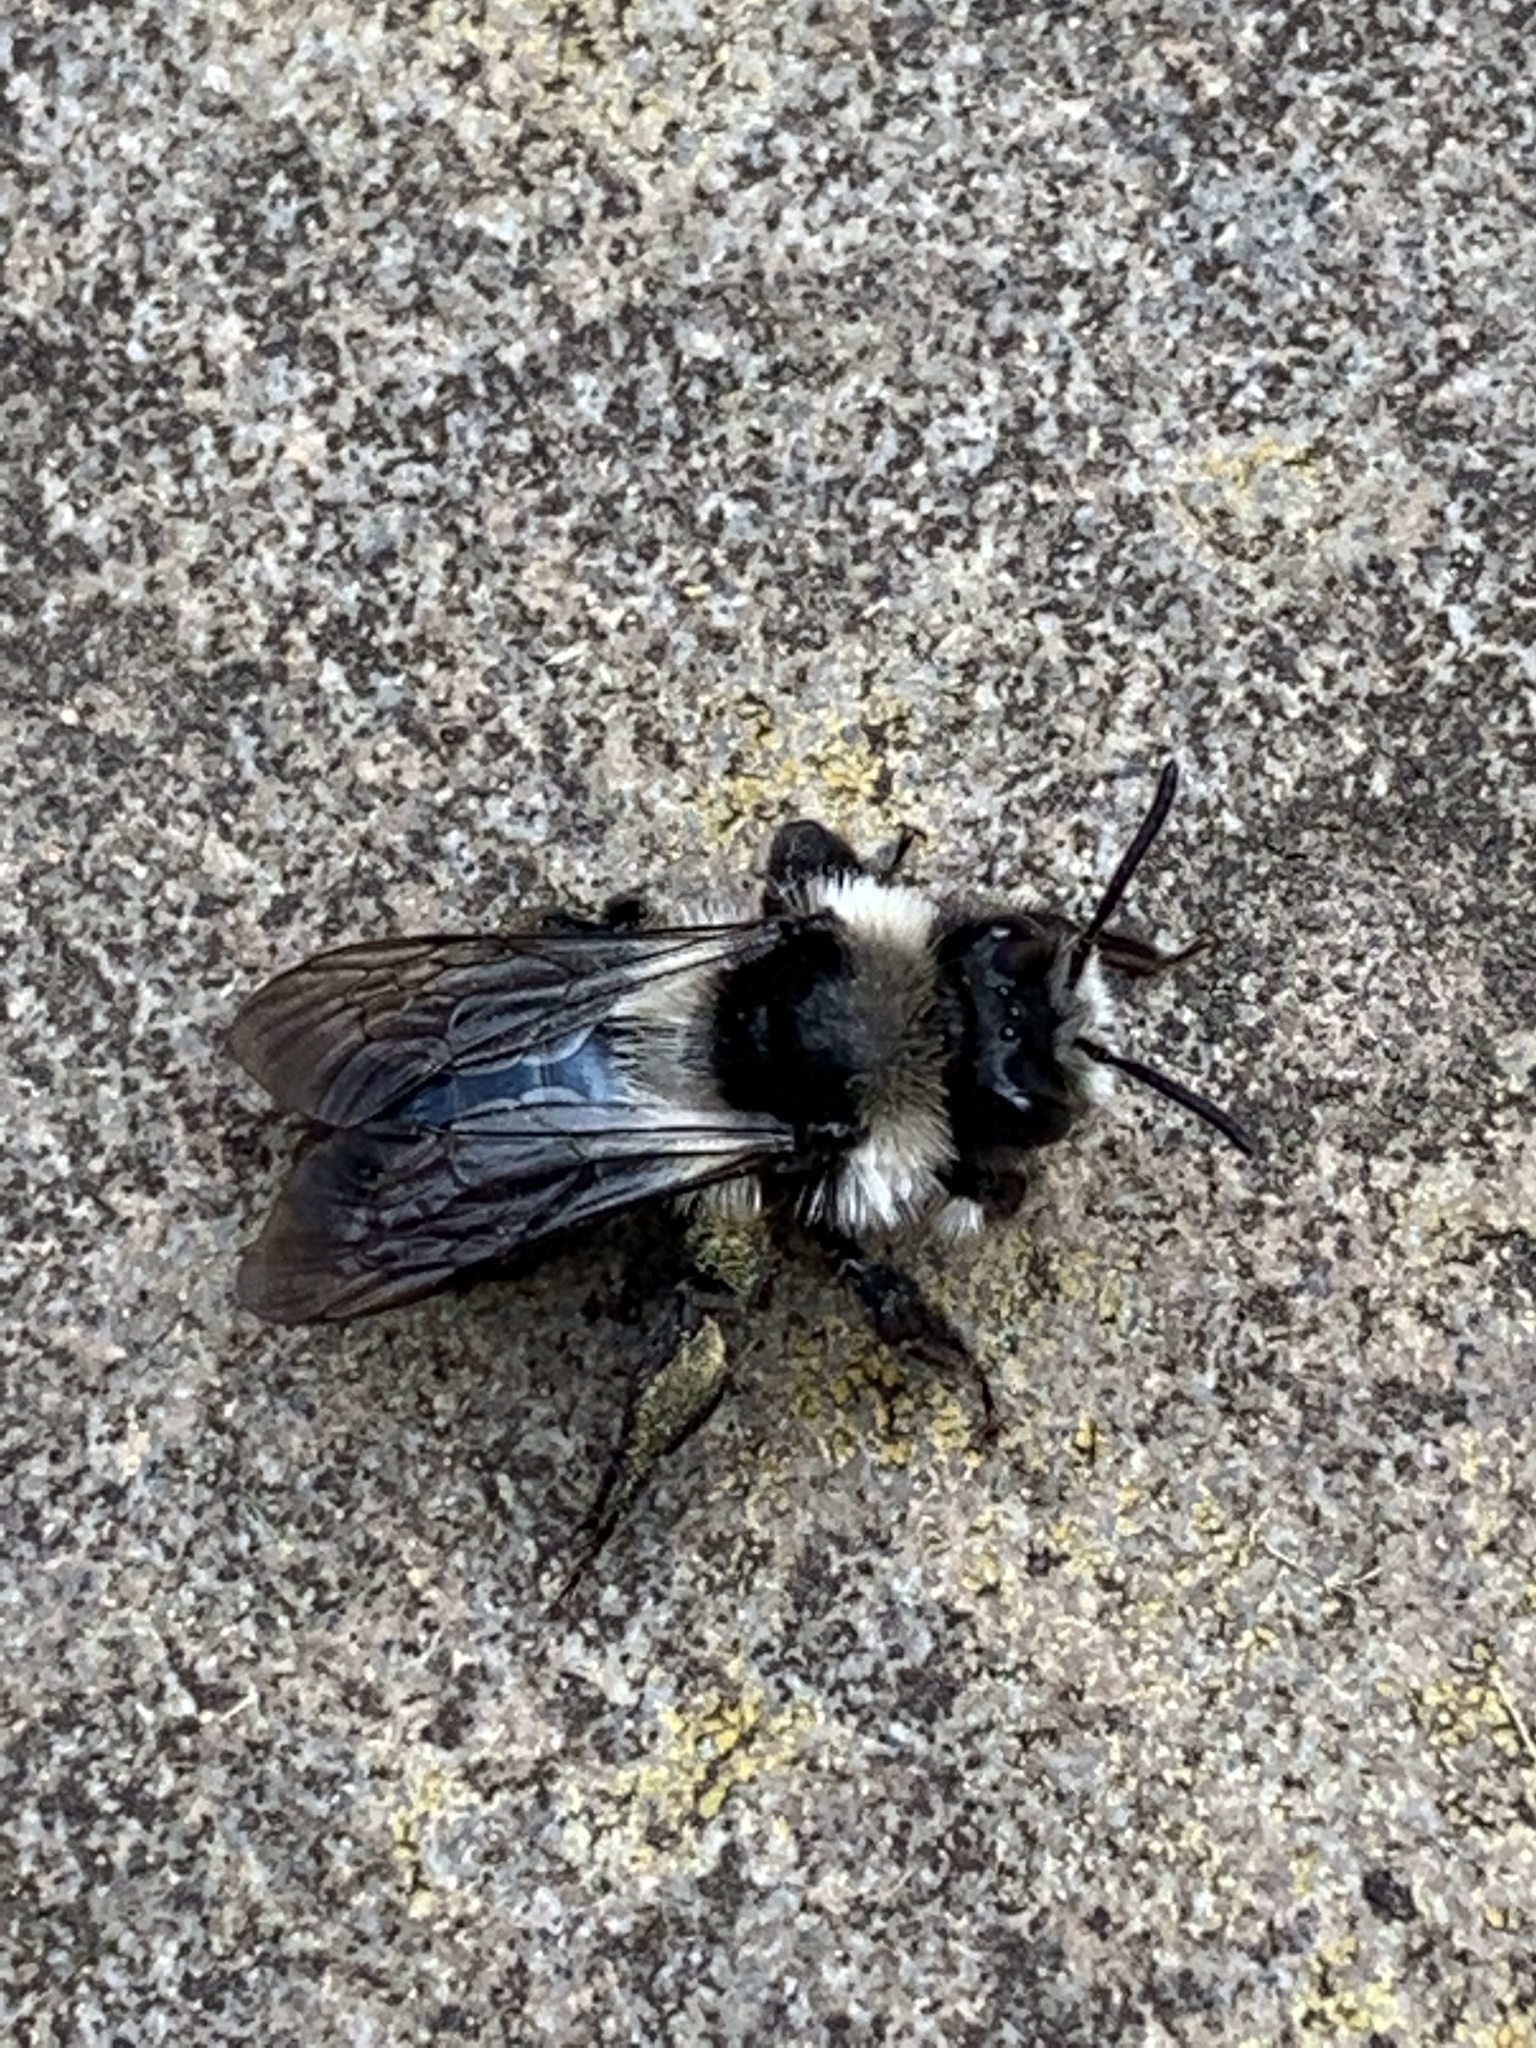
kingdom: Animalia
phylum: Arthropoda
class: Insecta
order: Hymenoptera
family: Andrenidae
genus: Andrena
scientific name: Andrena cineraria
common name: Ashy mining bee
